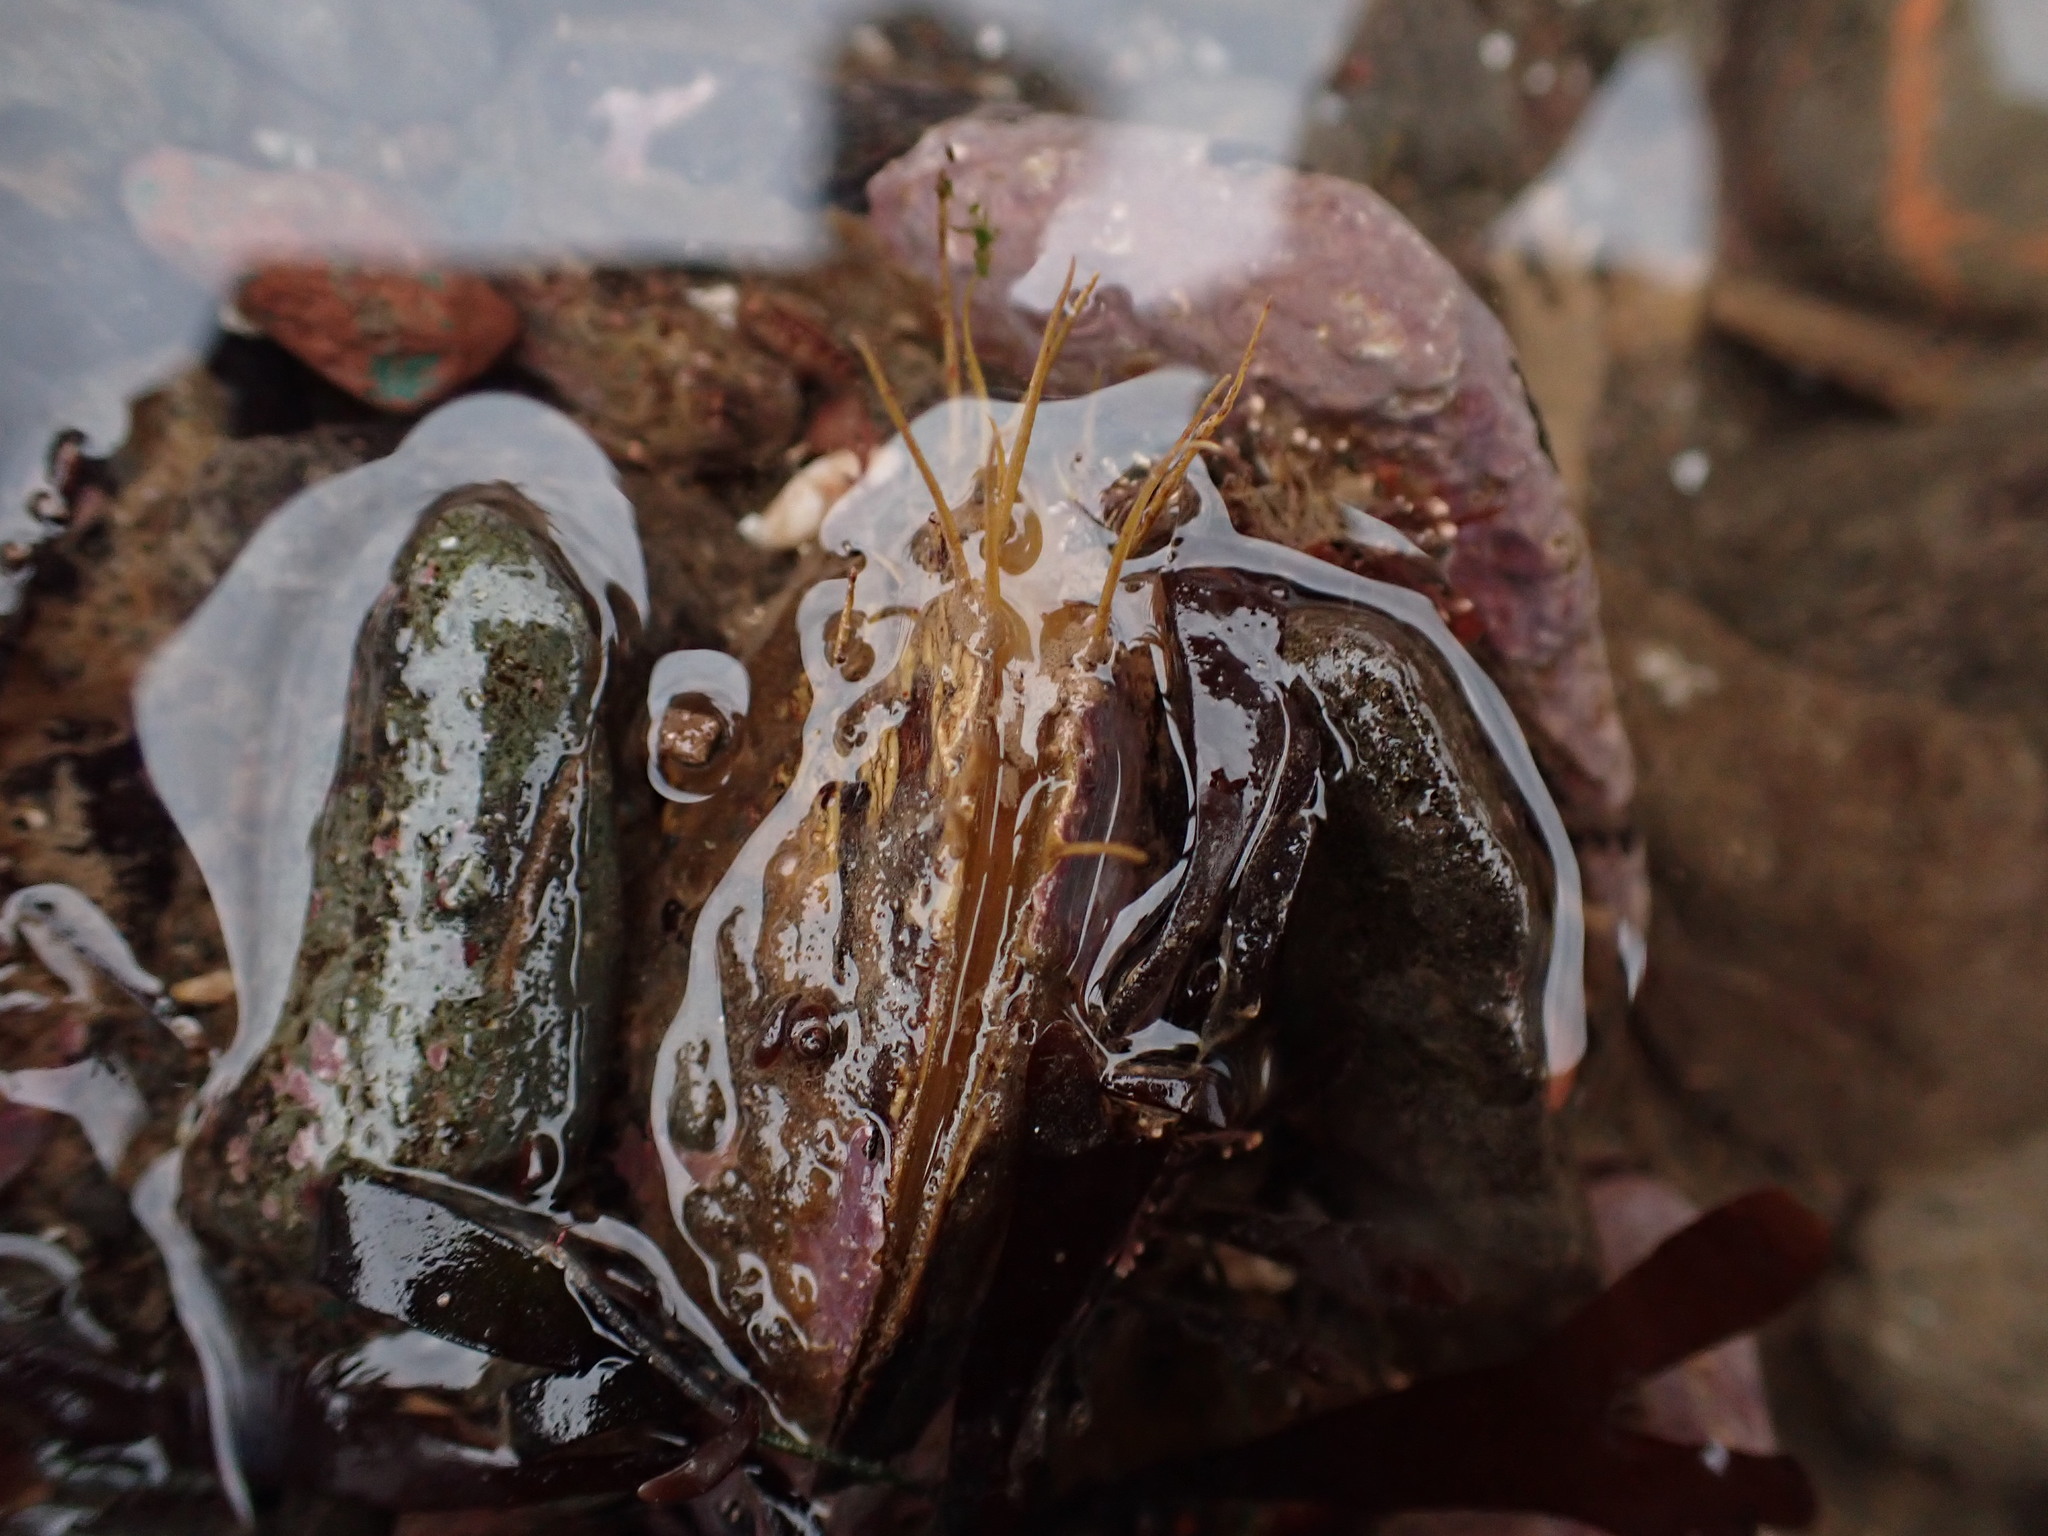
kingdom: Animalia
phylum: Mollusca
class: Bivalvia
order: Mytilida
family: Mytilidae
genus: Modiolus
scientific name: Modiolus modiolus
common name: Horse-mussel
